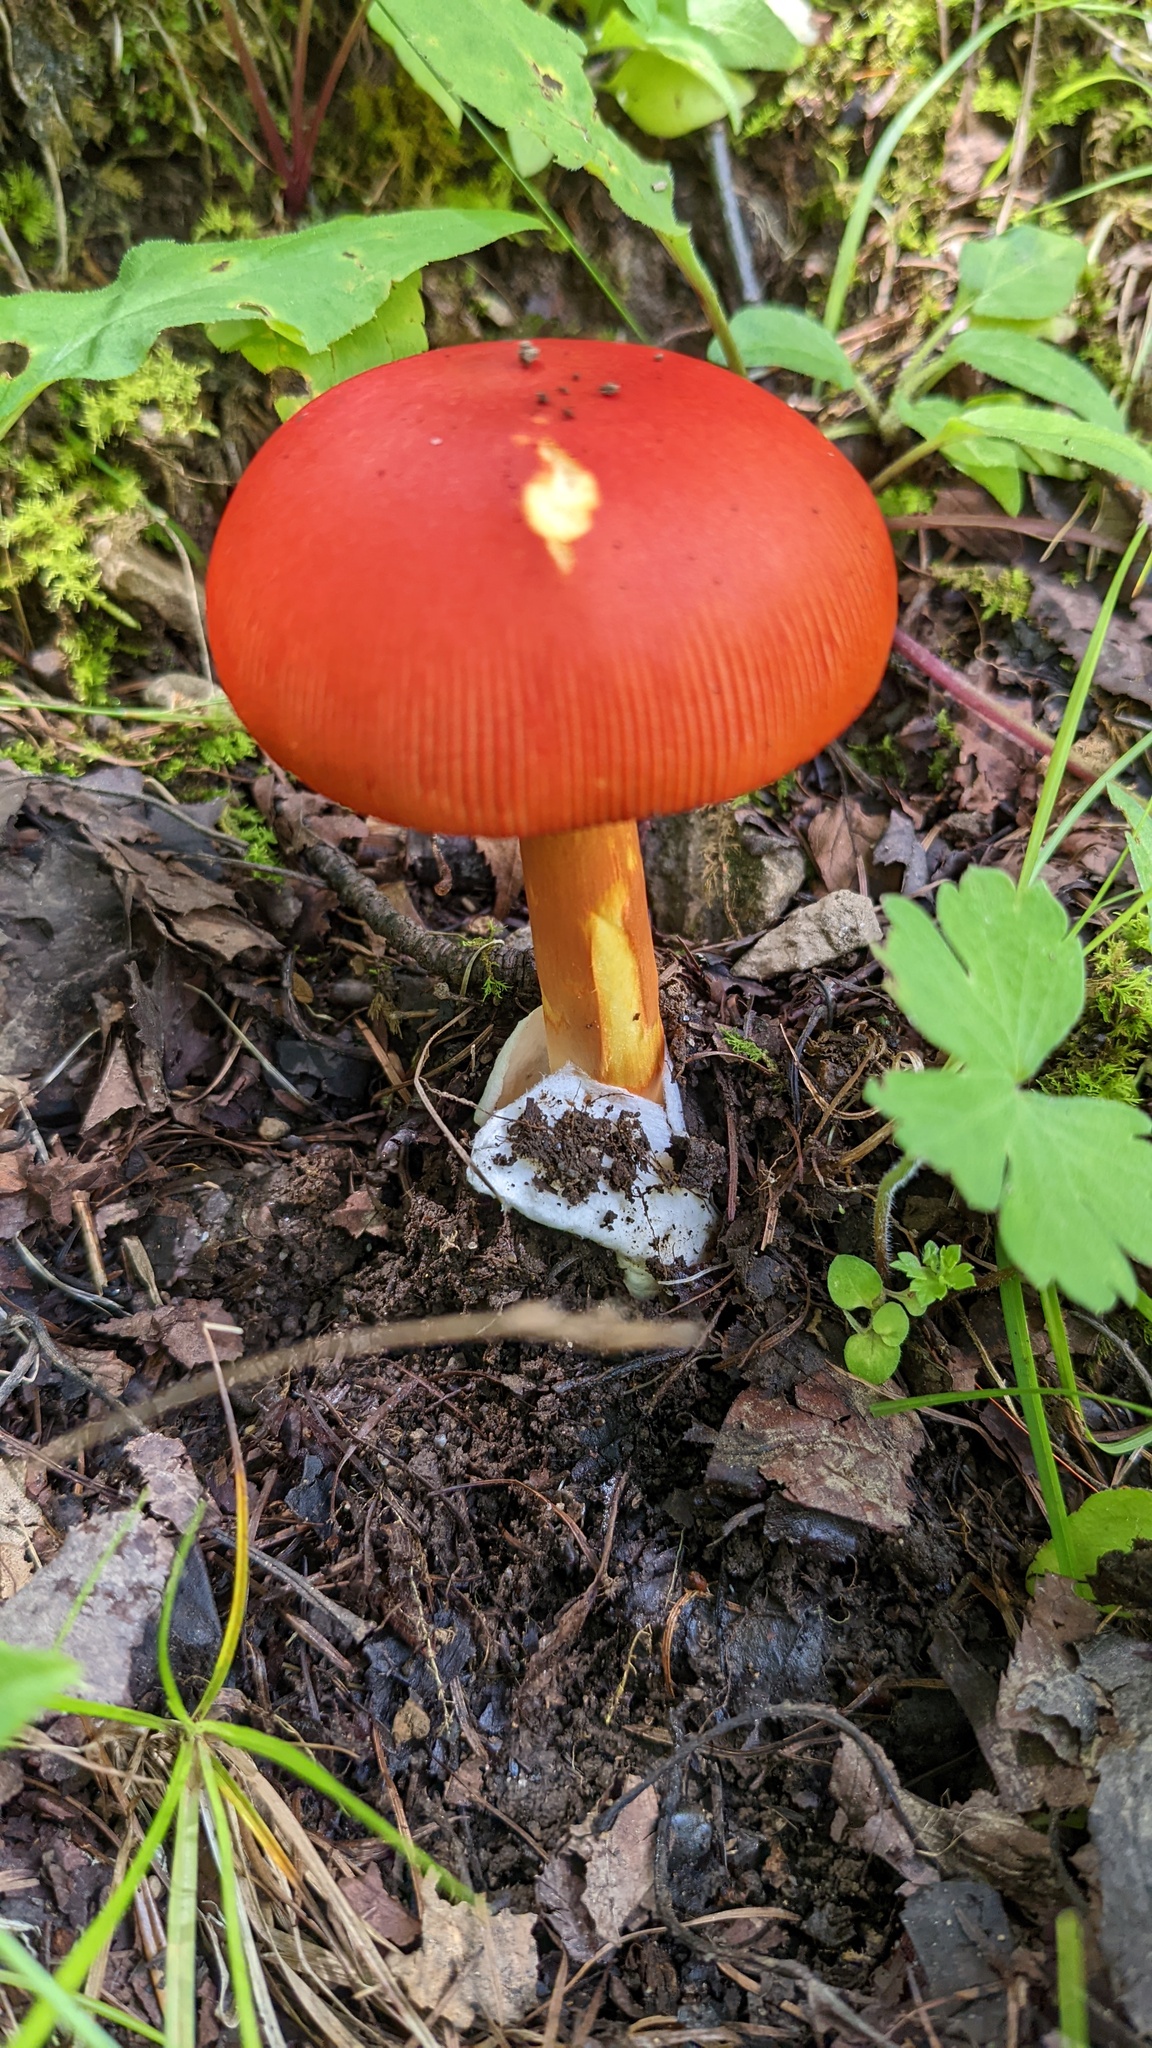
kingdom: Fungi
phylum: Basidiomycota
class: Agaricomycetes
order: Agaricales
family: Amanitaceae
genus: Amanita
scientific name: Amanita caesareoides
